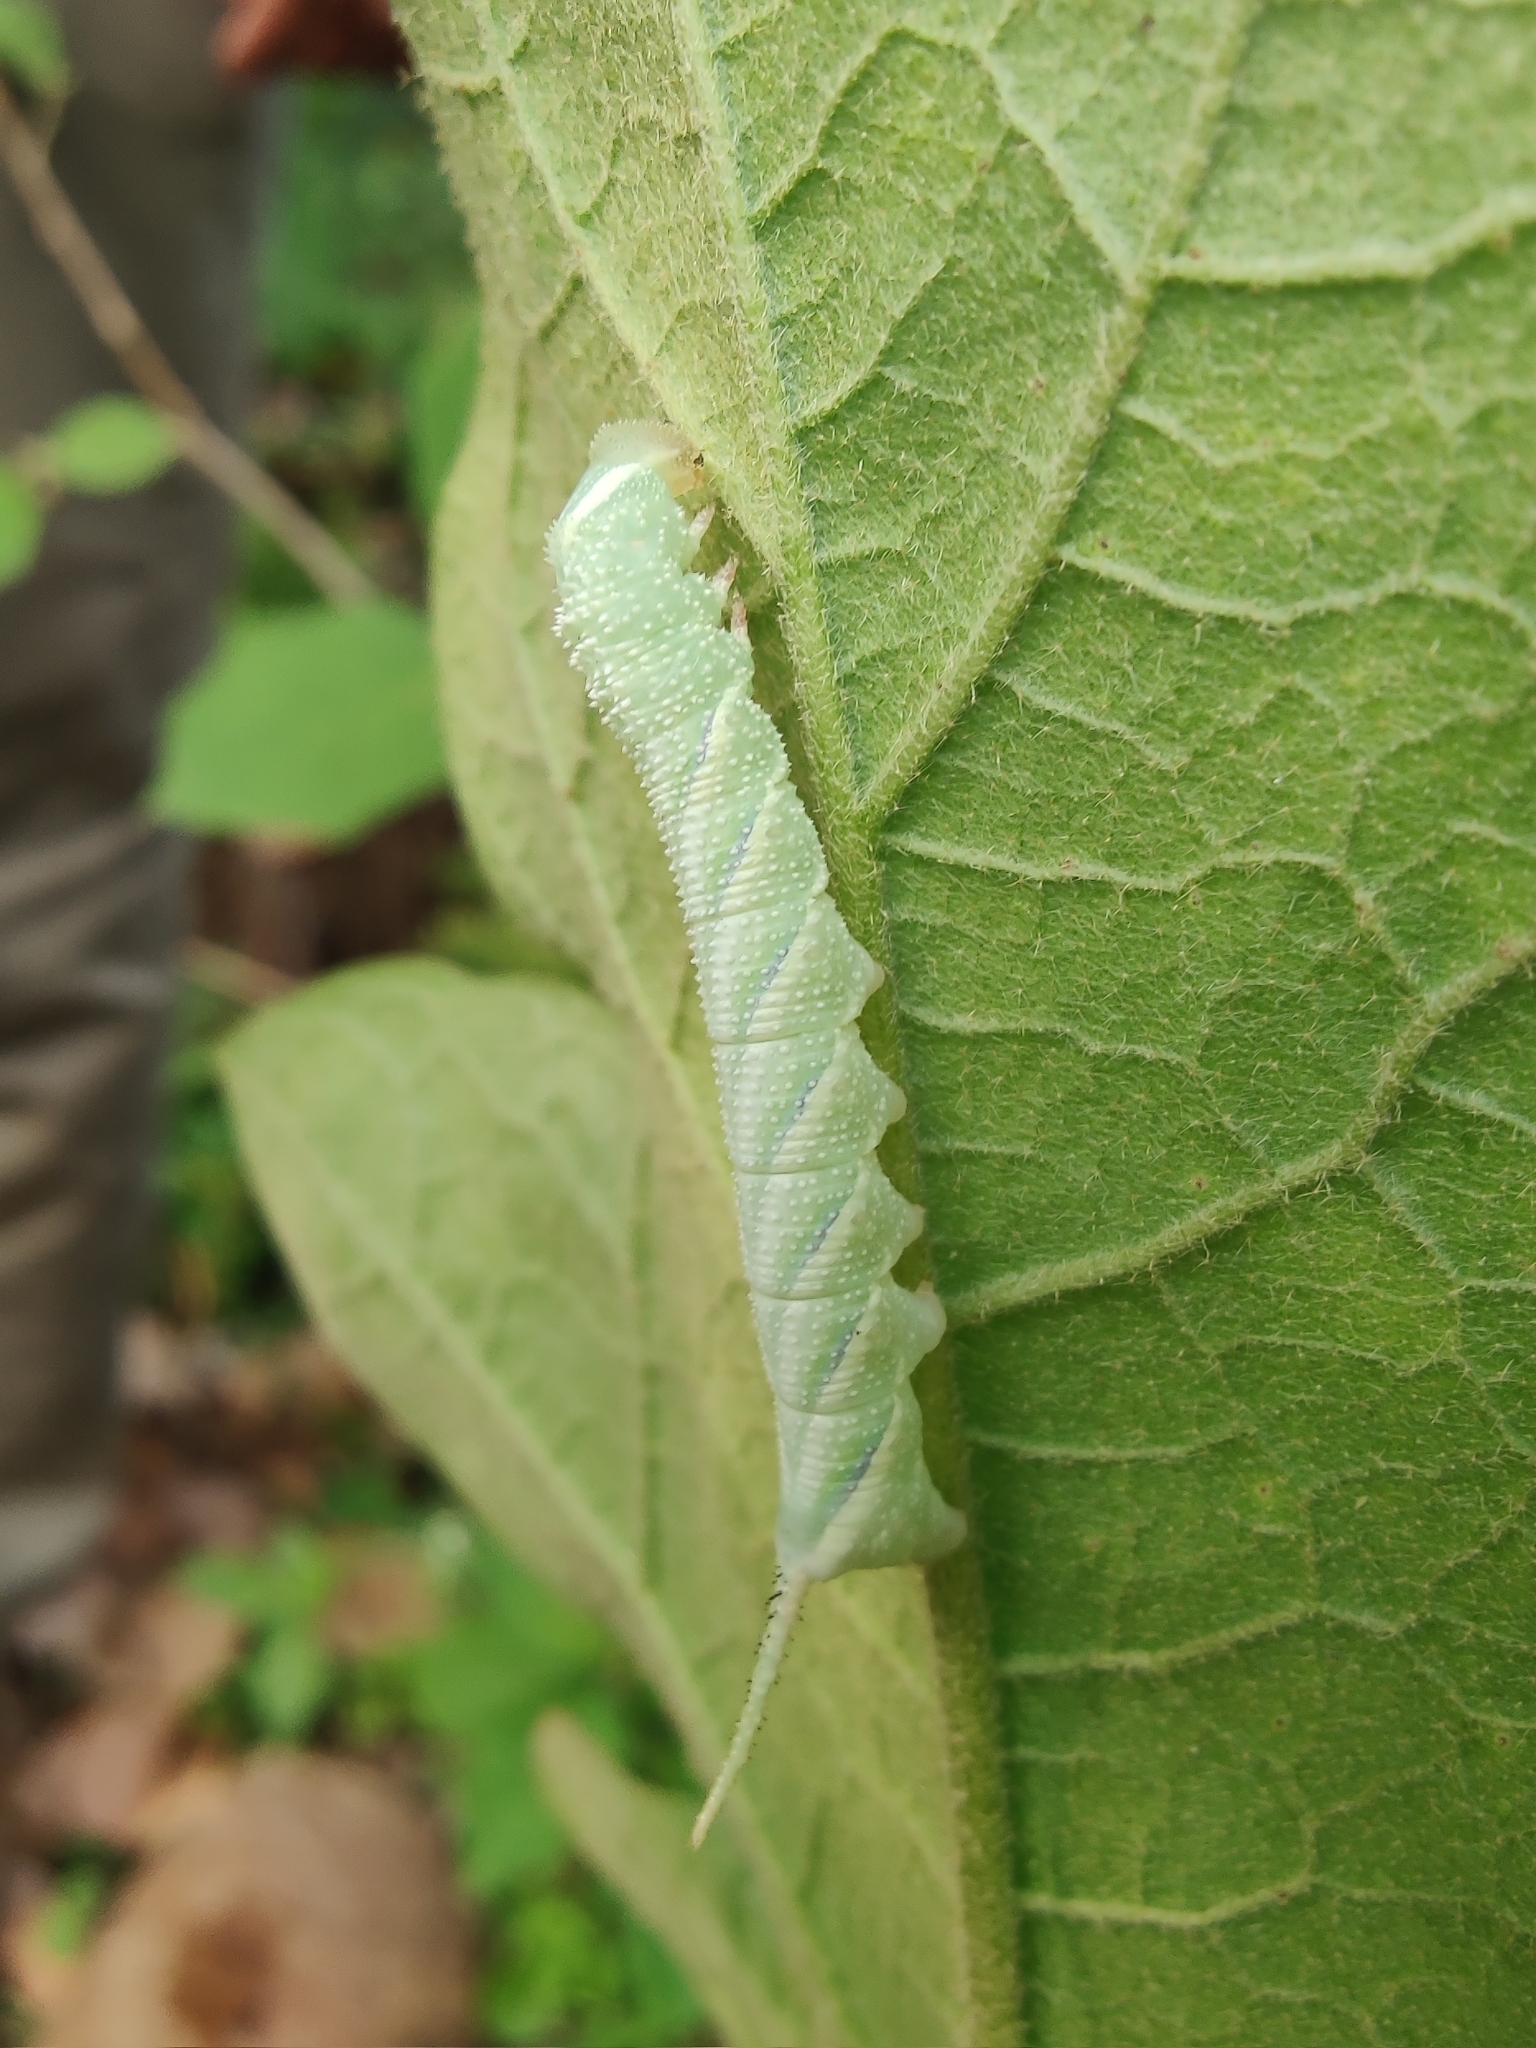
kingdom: Animalia
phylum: Arthropoda
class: Insecta
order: Lepidoptera
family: Sphingidae
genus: Acherontia
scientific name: Acherontia styx
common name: Death's-head hawk moth
